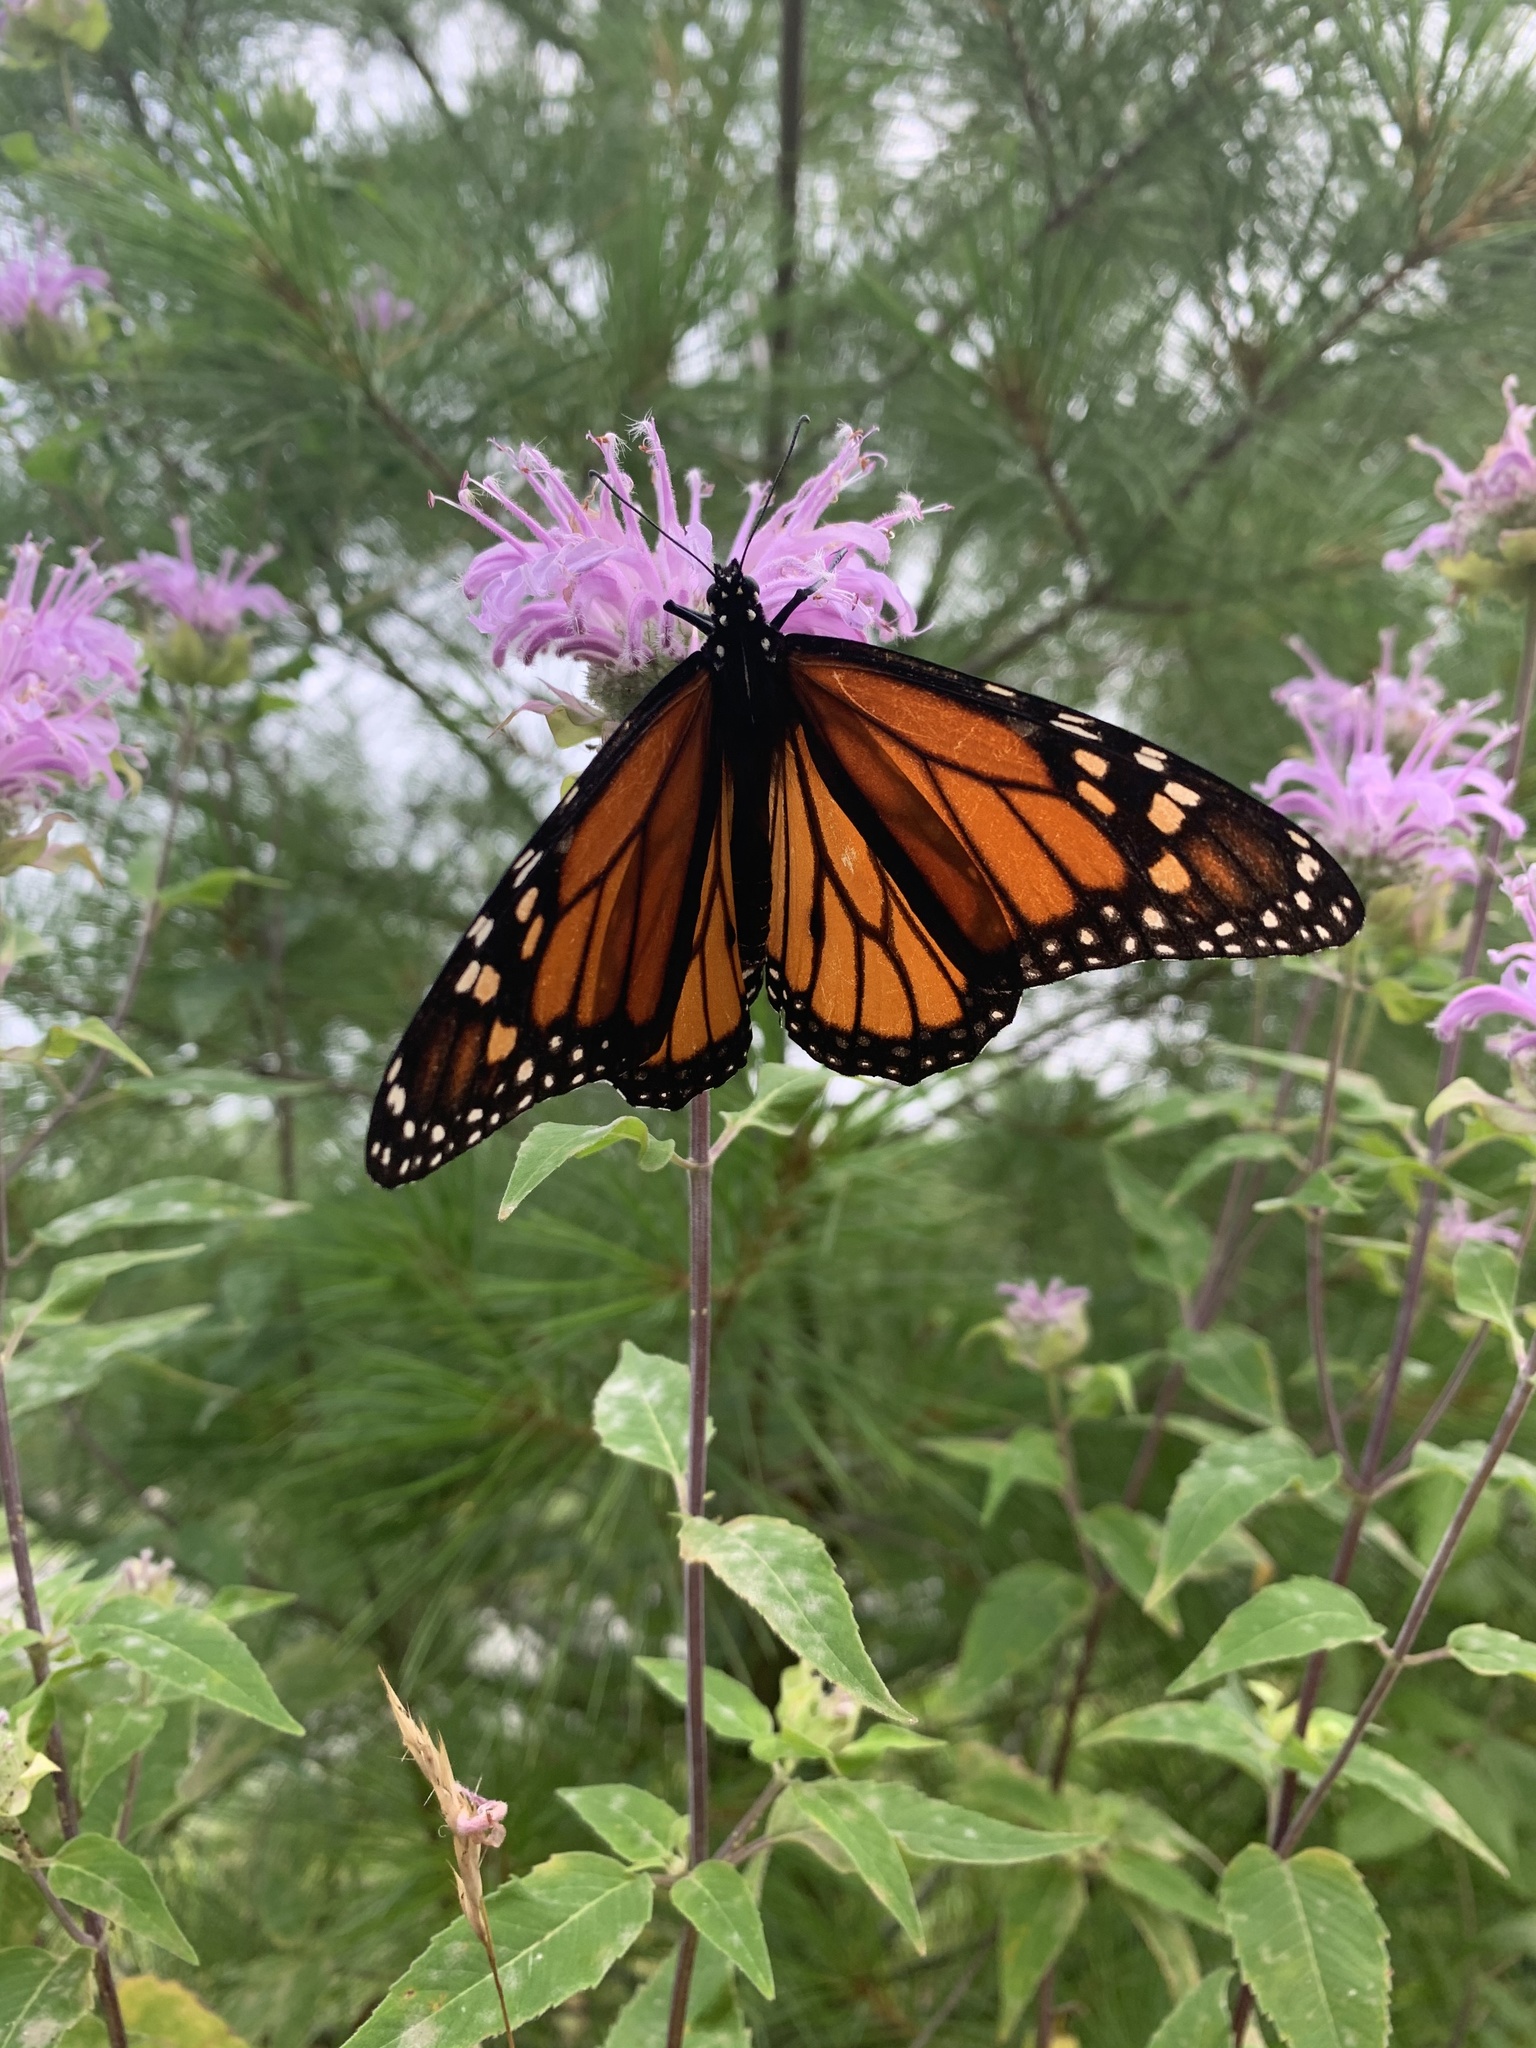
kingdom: Animalia
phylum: Arthropoda
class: Insecta
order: Lepidoptera
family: Nymphalidae
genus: Danaus
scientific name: Danaus plexippus
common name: Monarch
